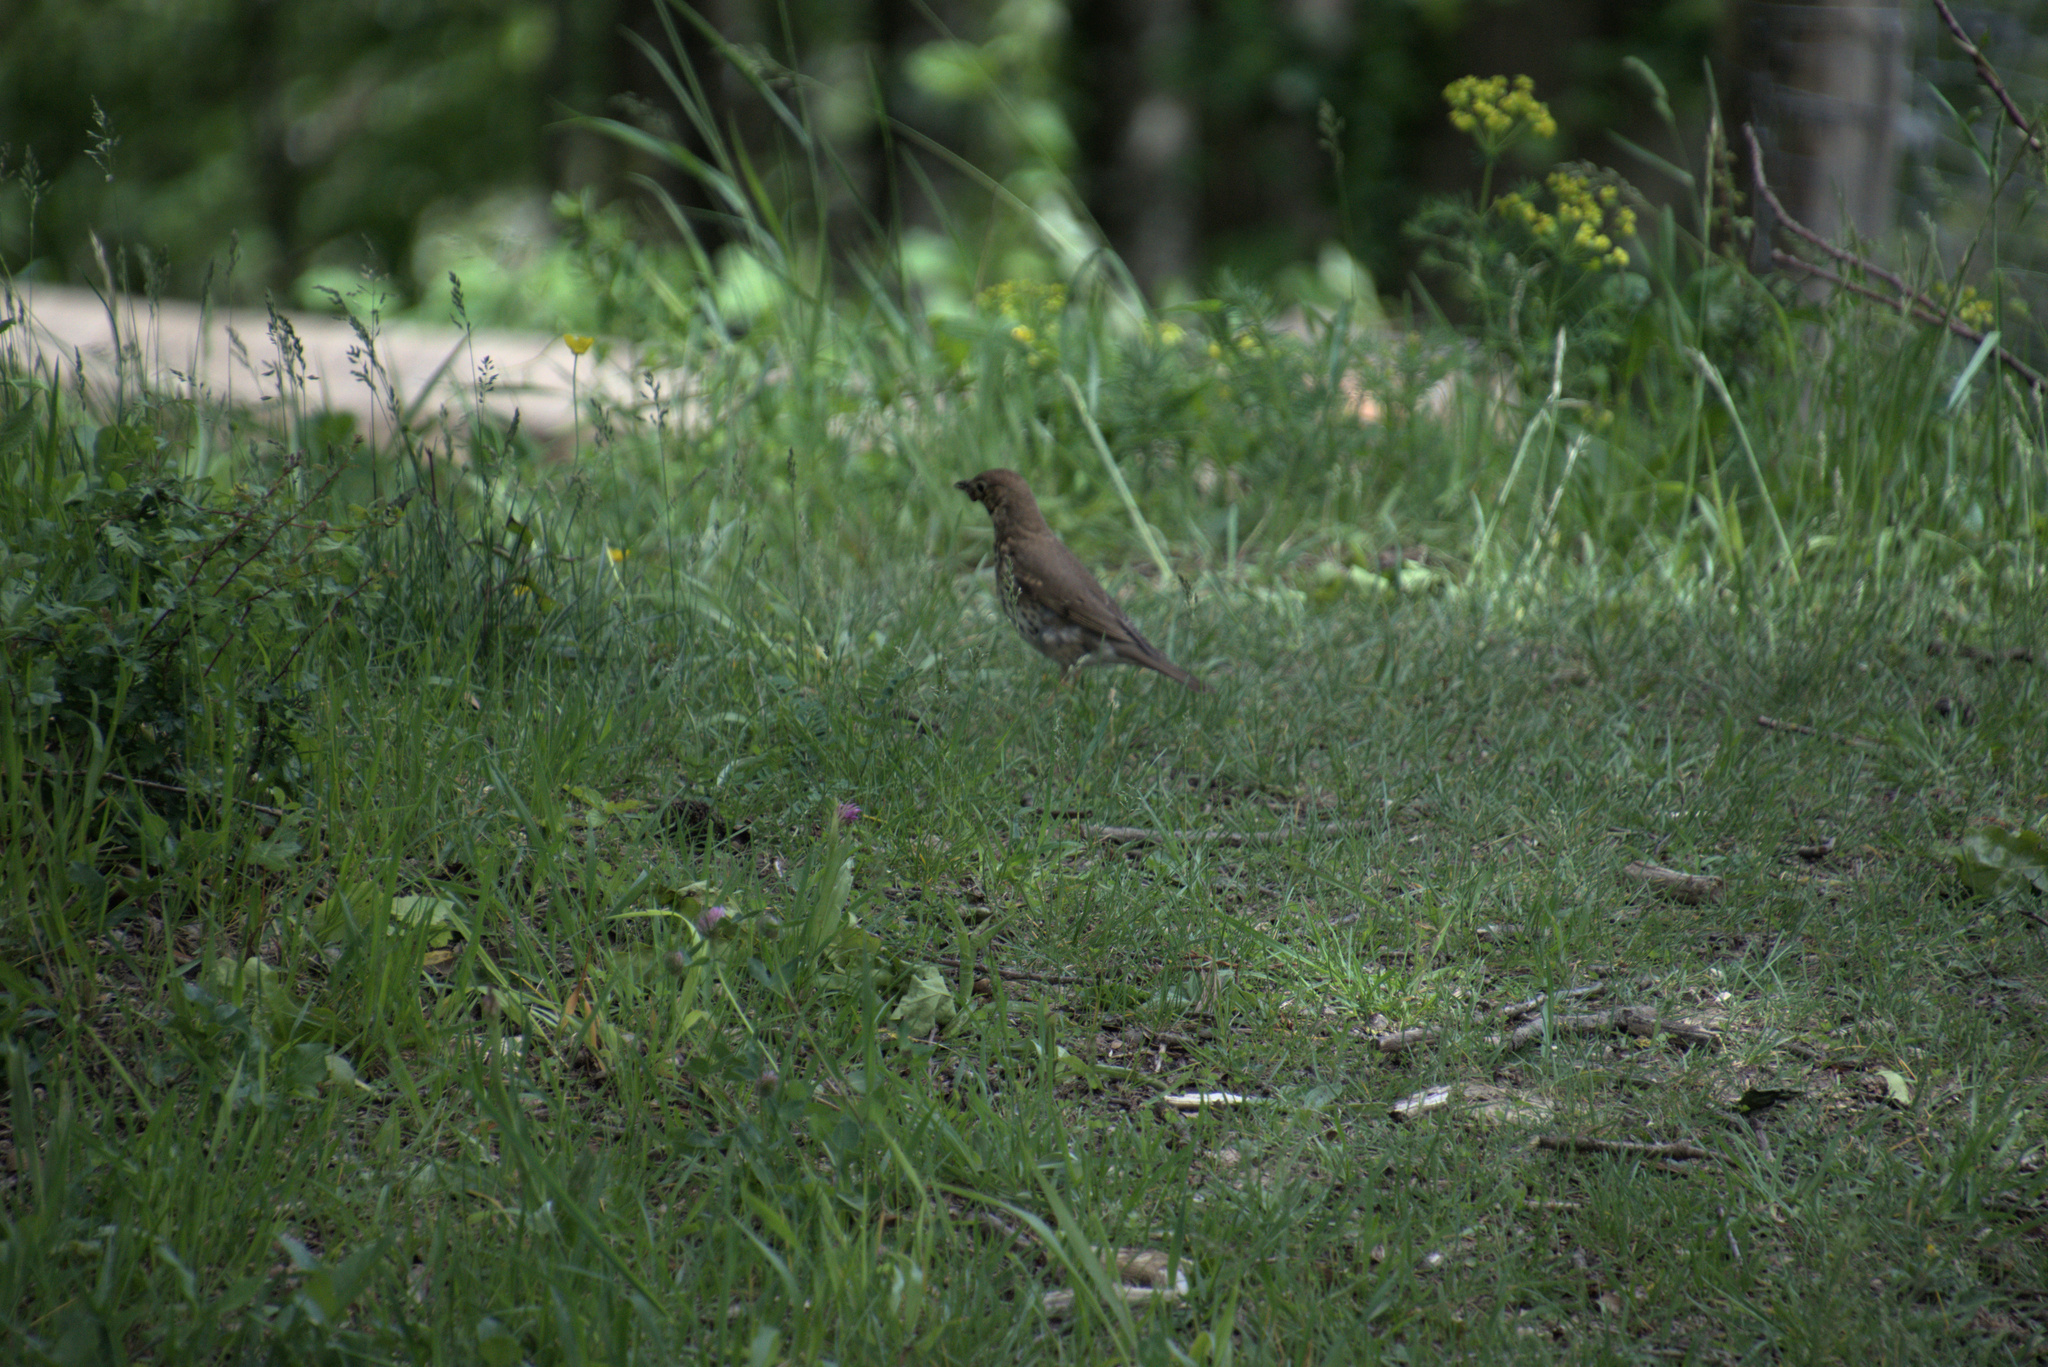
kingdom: Animalia
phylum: Chordata
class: Aves
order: Passeriformes
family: Turdidae
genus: Turdus
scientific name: Turdus philomelos
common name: Song thrush
